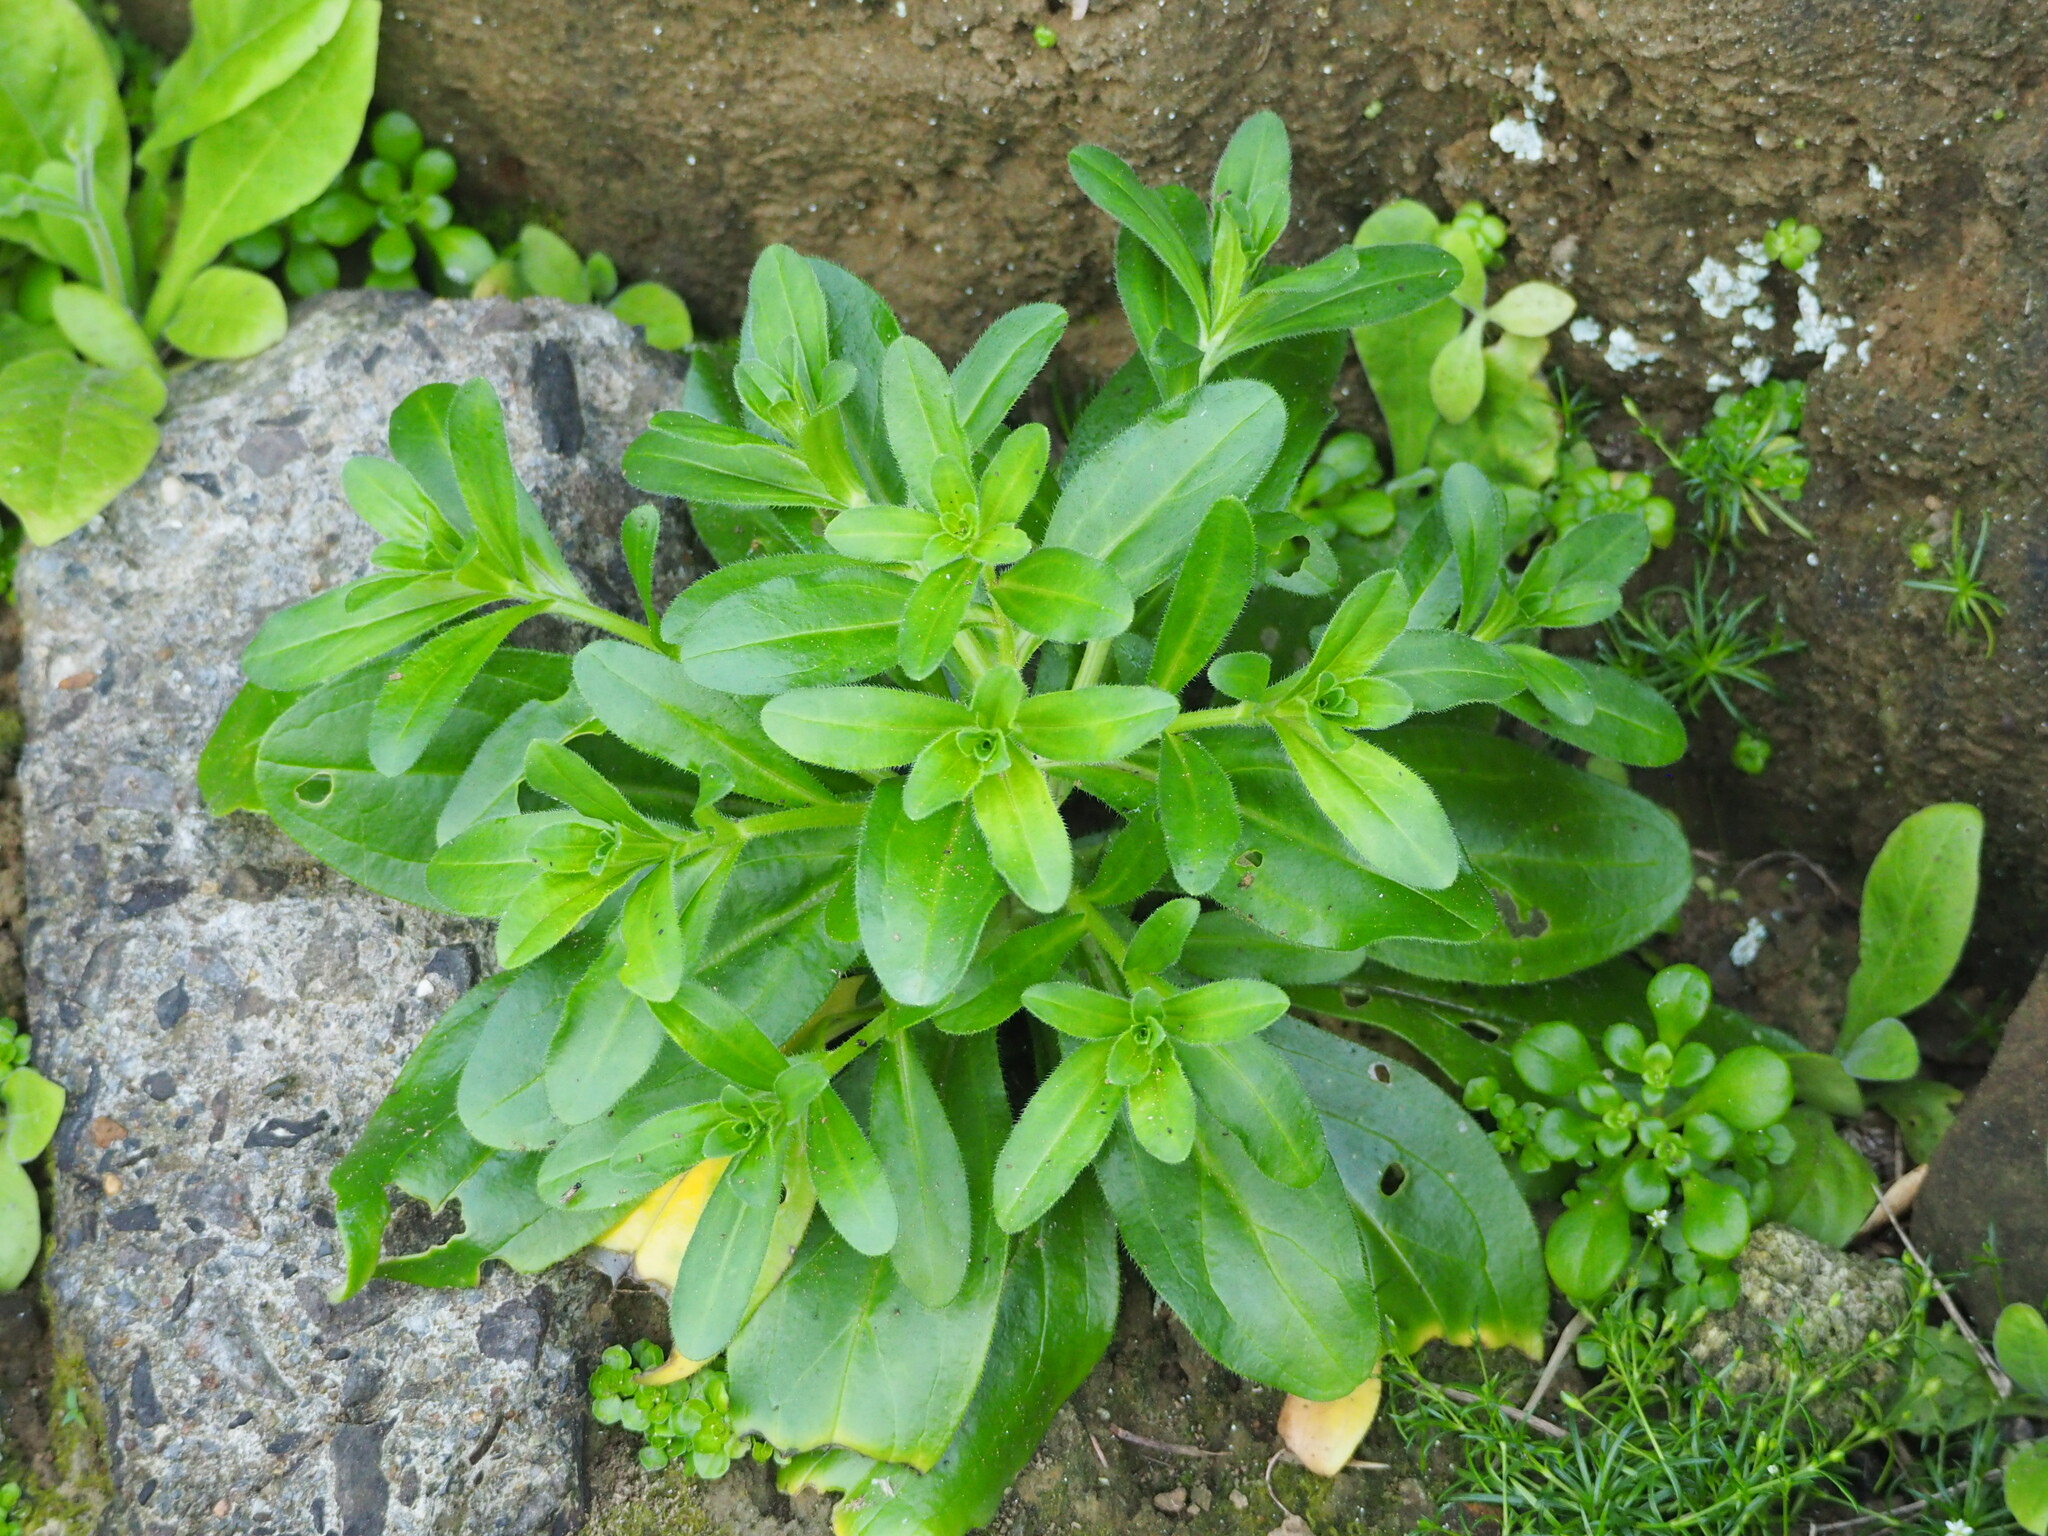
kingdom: Plantae
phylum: Tracheophyta
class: Magnoliopsida
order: Asterales
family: Asteraceae
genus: Heteropappus
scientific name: Heteropappus oldhamii
